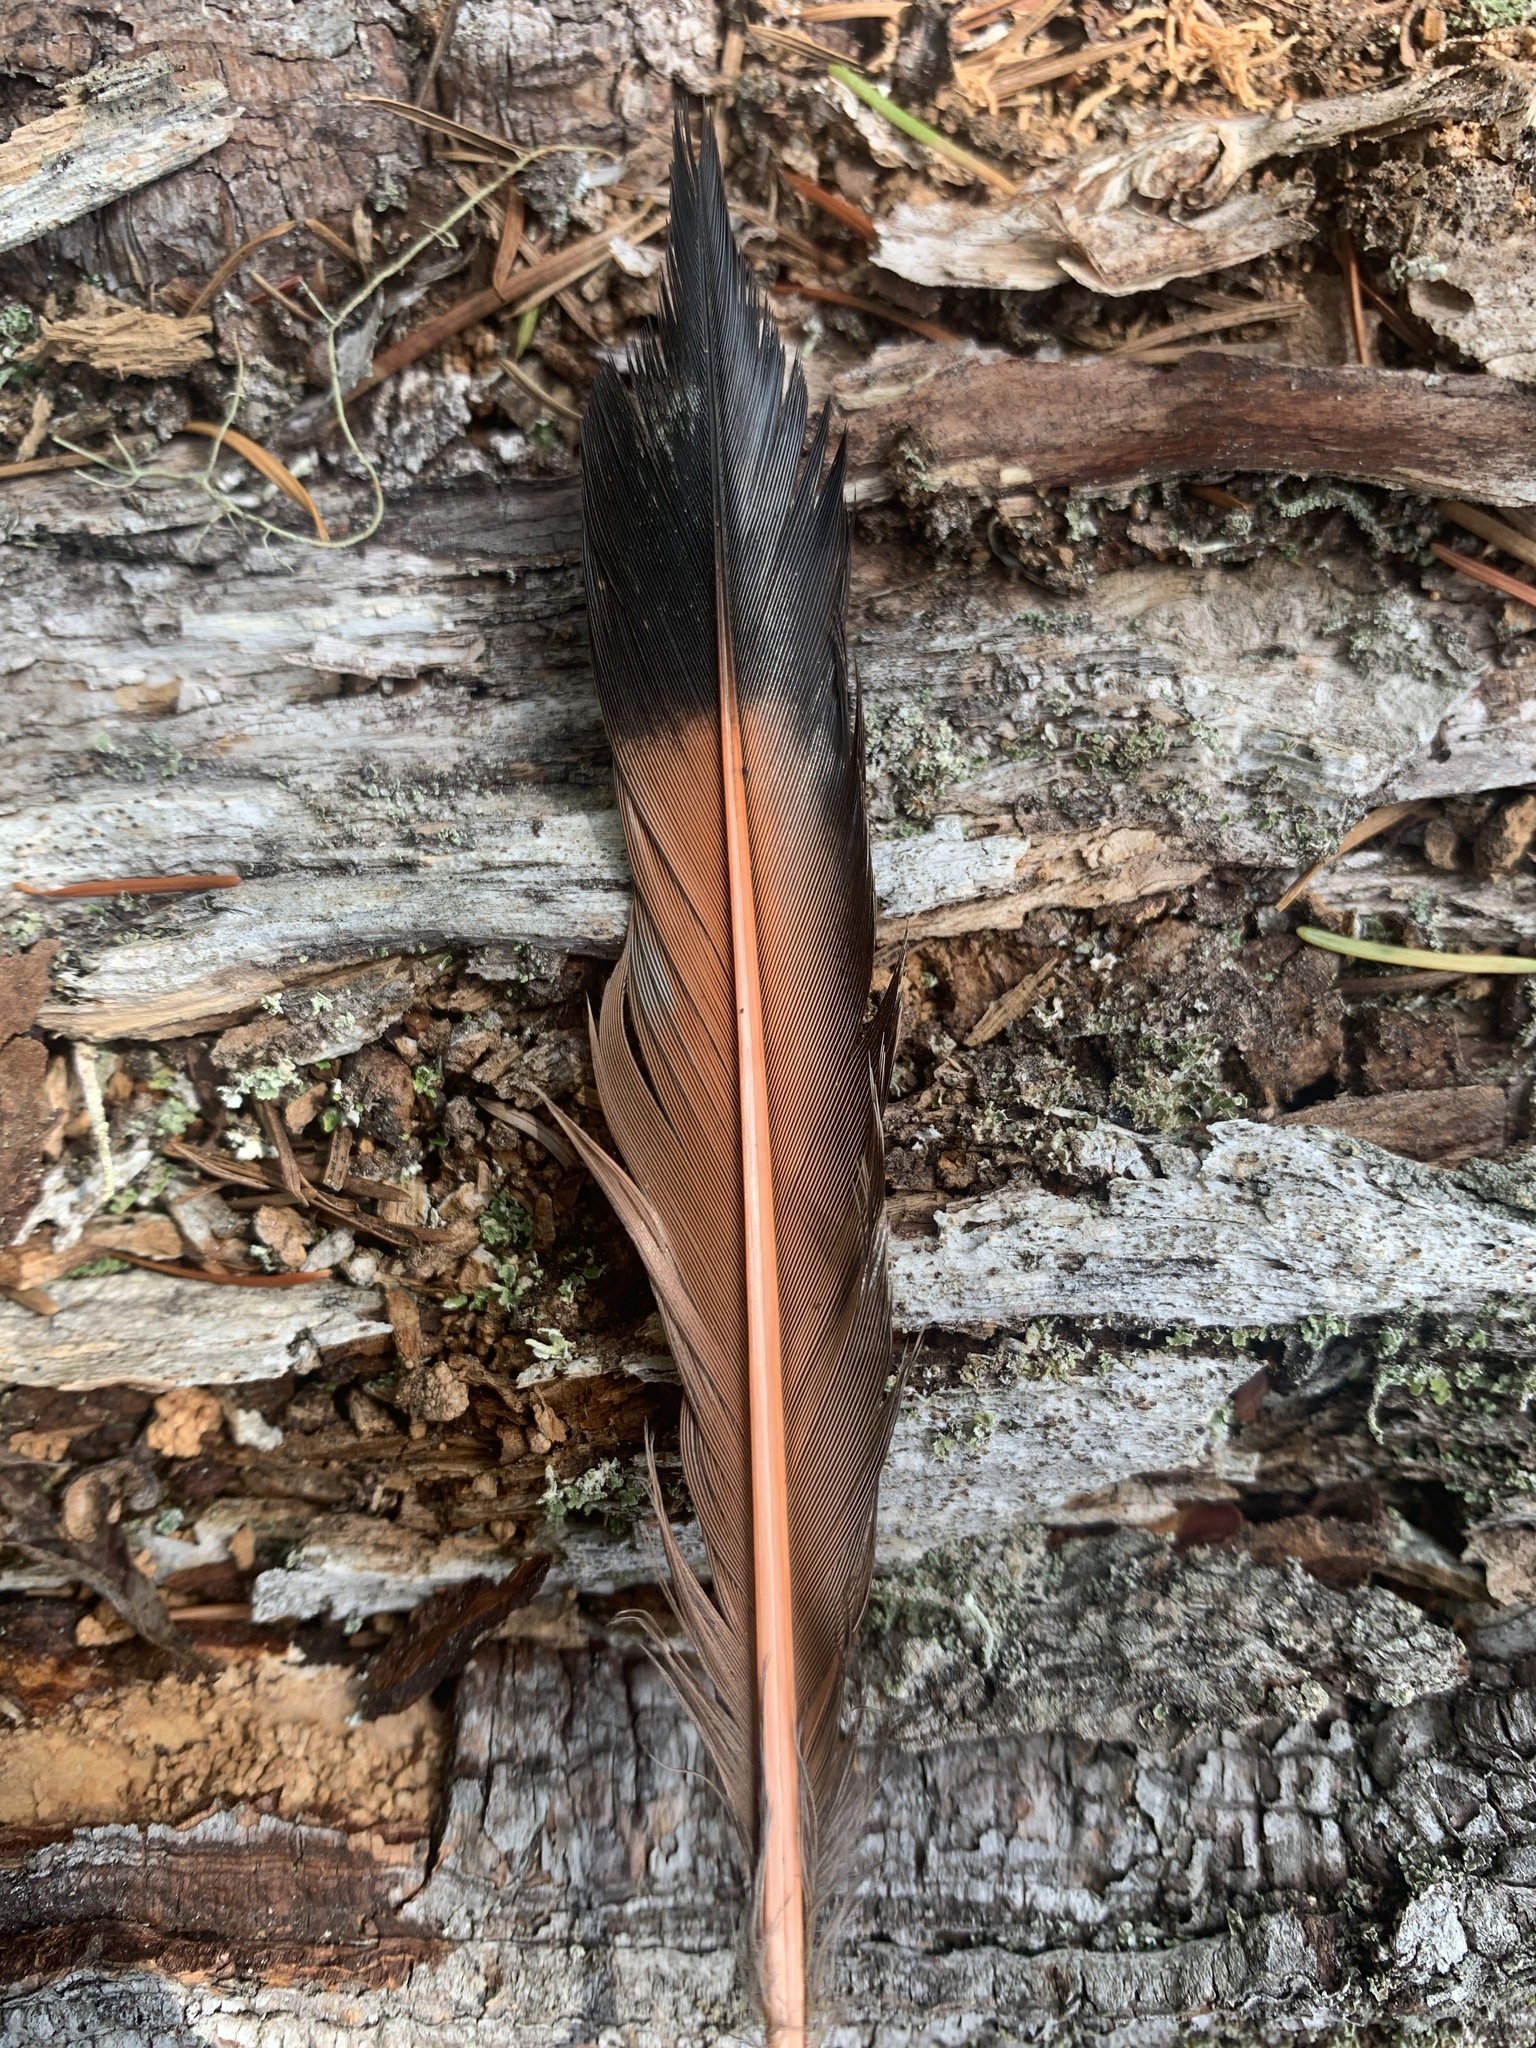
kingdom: Animalia
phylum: Chordata
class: Aves
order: Piciformes
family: Picidae
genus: Colaptes
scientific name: Colaptes auratus
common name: Northern flicker
